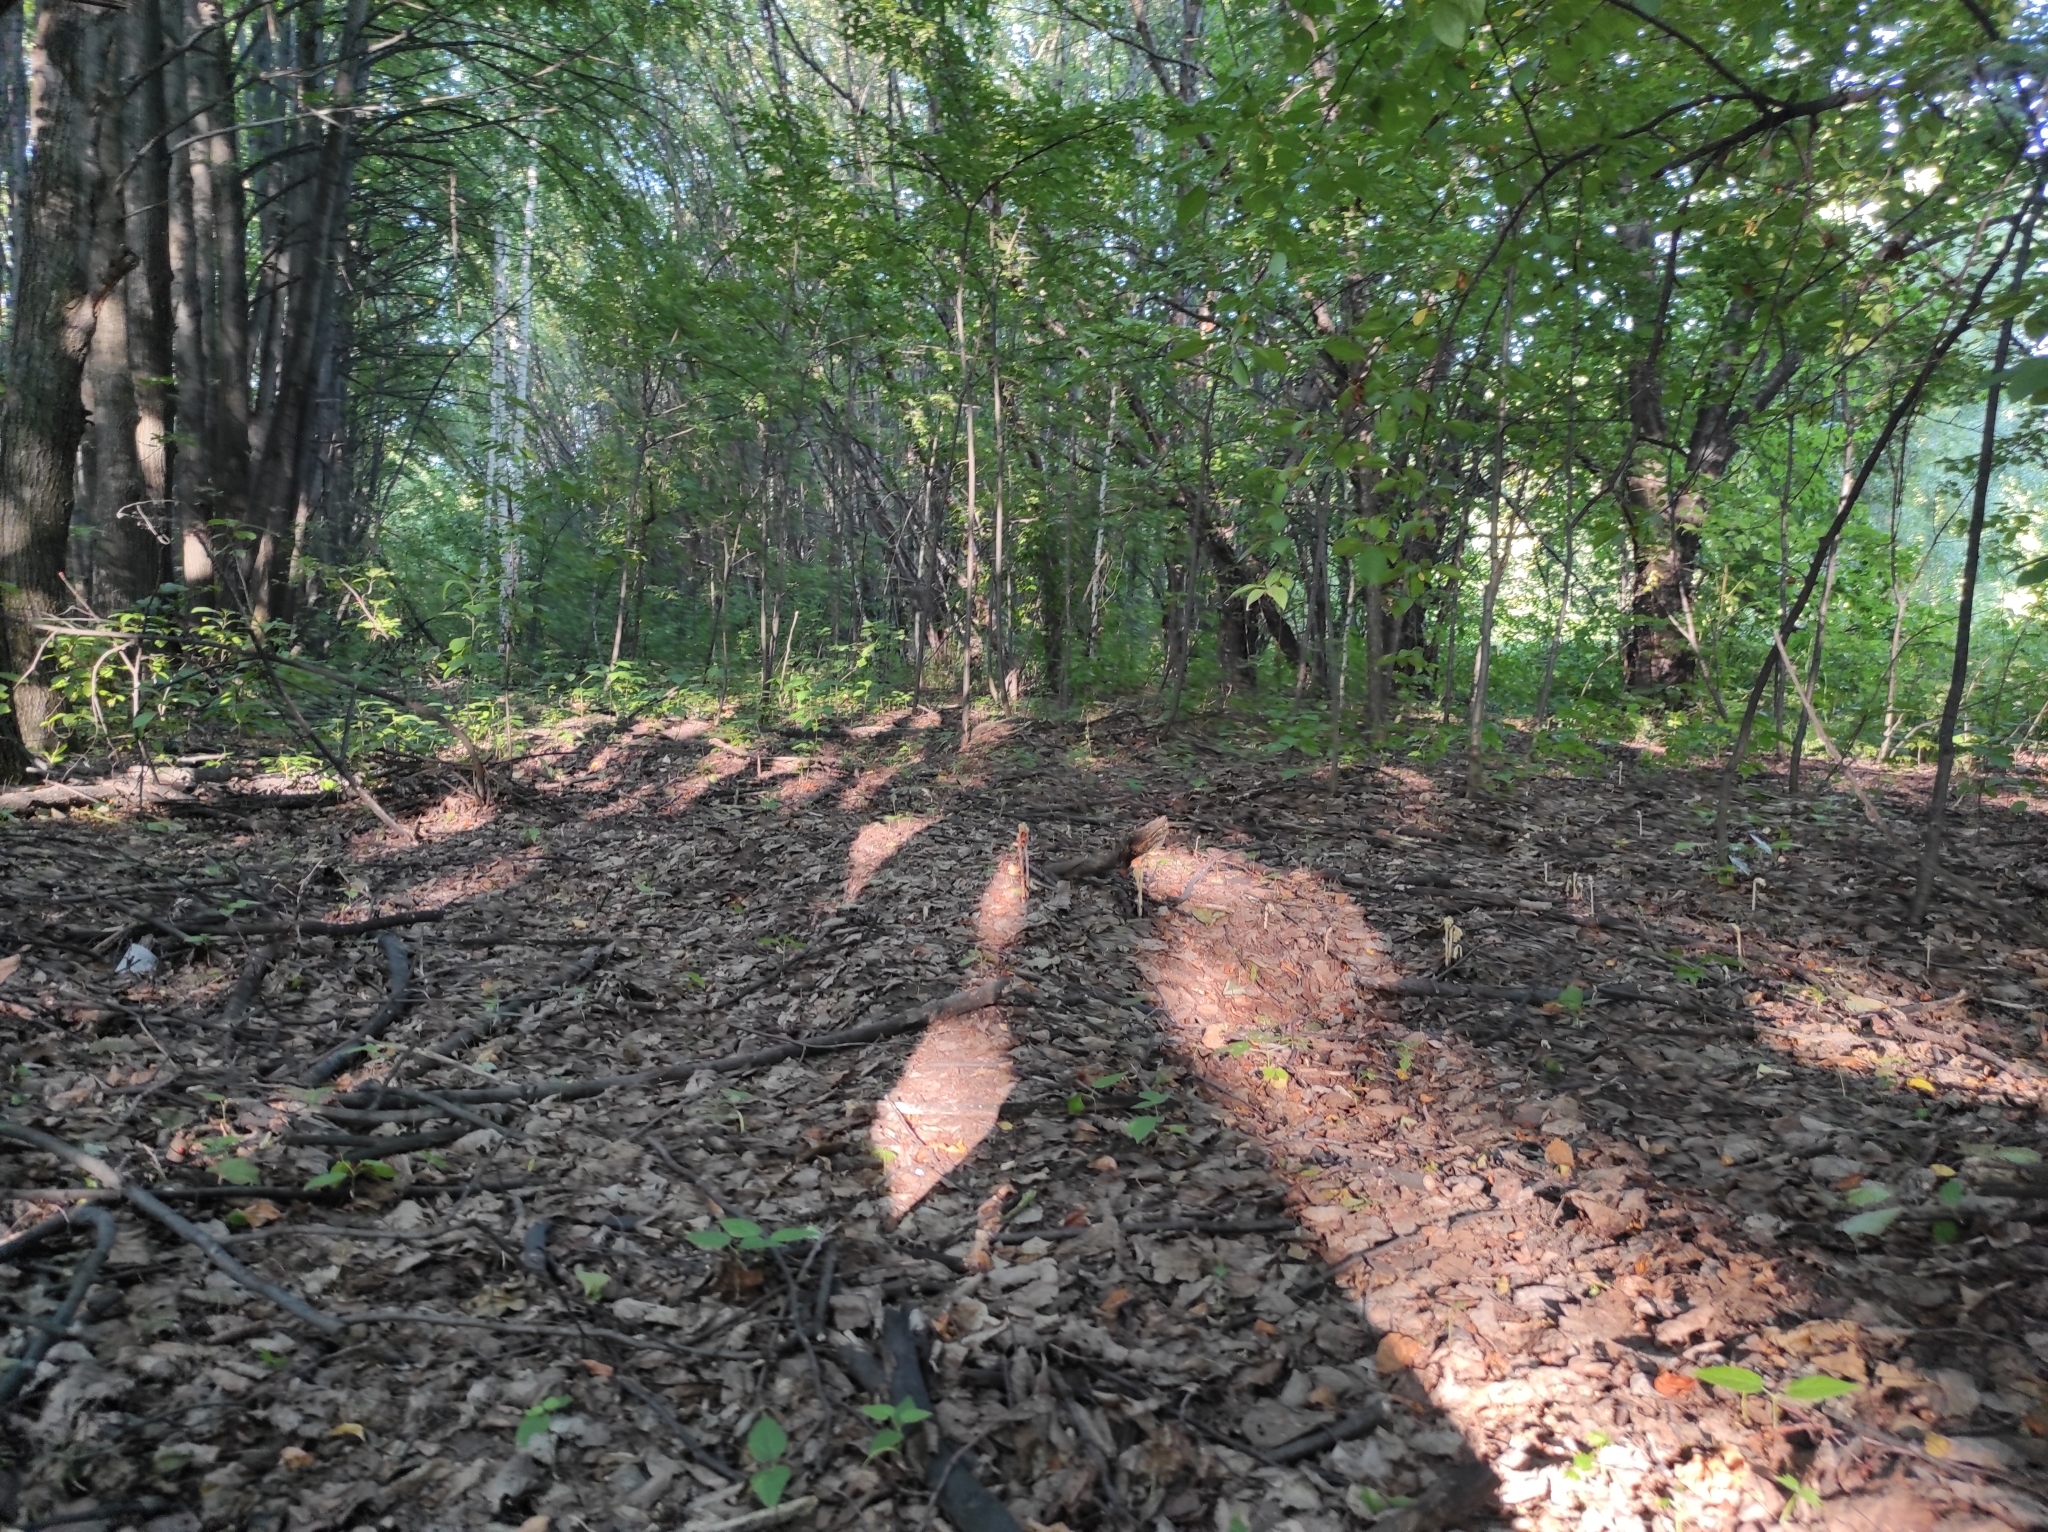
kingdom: Plantae
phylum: Tracheophyta
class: Liliopsida
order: Asparagales
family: Orchidaceae
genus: Epipactis
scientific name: Epipactis helleborine
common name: Broad-leaved helleborine
